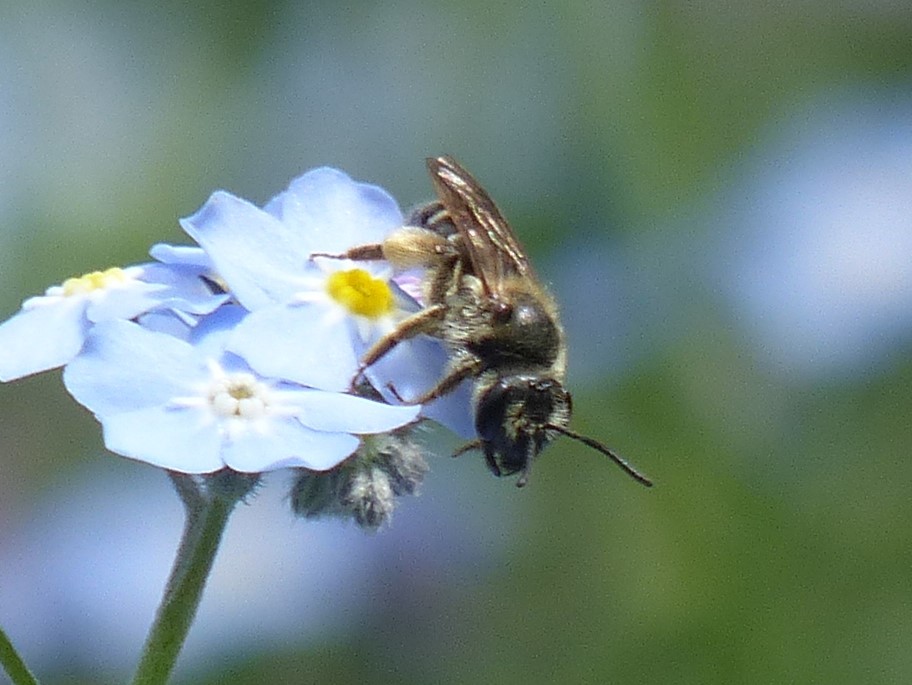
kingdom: Animalia
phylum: Arthropoda
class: Insecta
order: Hymenoptera
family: Andrenidae
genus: Andrena
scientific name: Andrena
